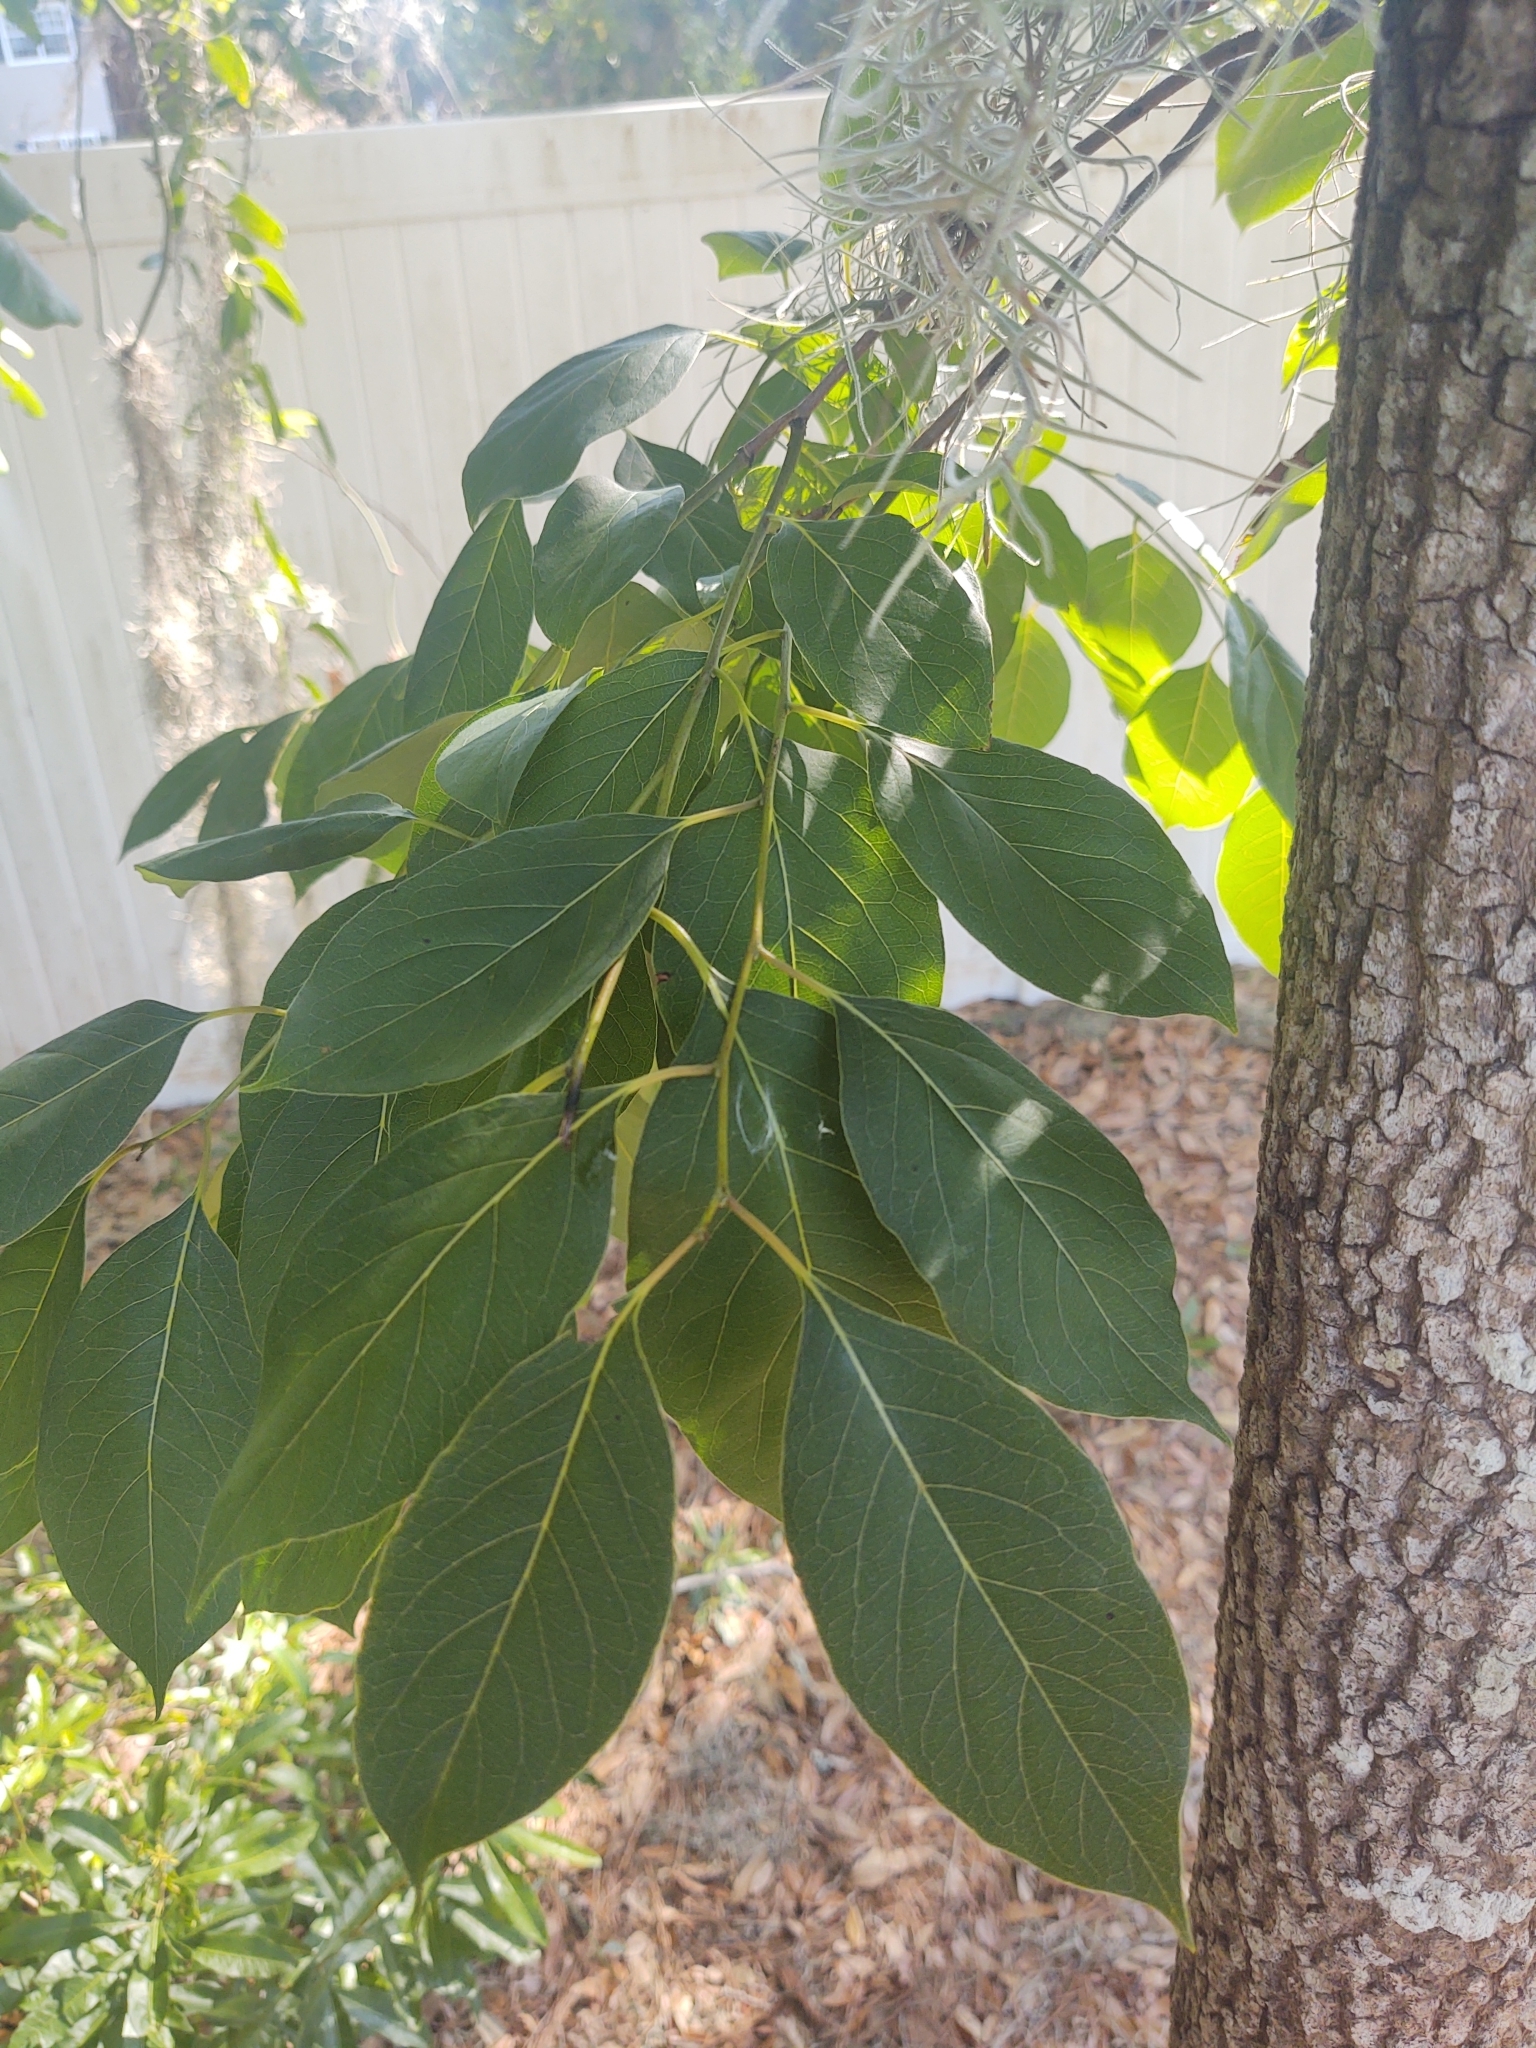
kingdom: Plantae
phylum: Tracheophyta
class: Magnoliopsida
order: Ericales
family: Ebenaceae
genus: Diospyros
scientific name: Diospyros virginiana
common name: Persimmon
